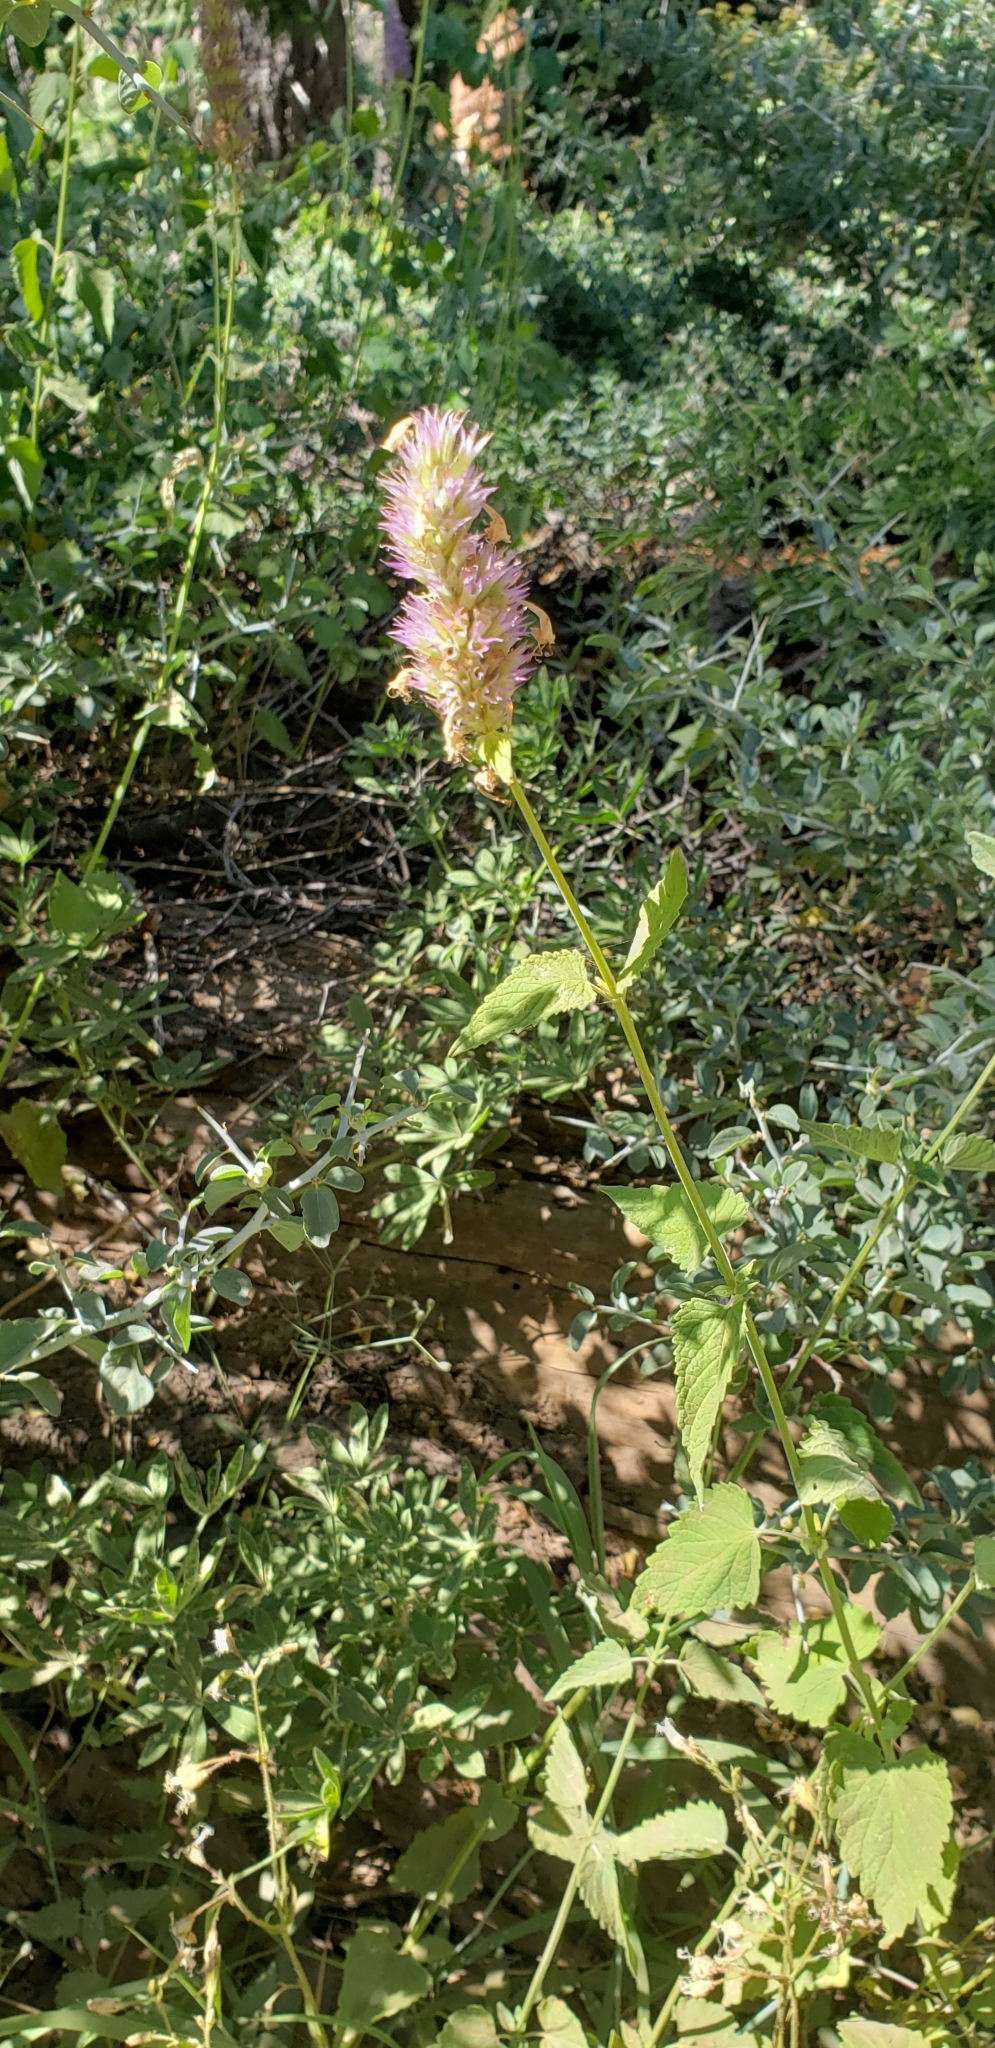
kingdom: Plantae
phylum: Tracheophyta
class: Magnoliopsida
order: Lamiales
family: Lamiaceae
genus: Agastache
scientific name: Agastache urticifolia
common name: Horsemint giant hyssop
